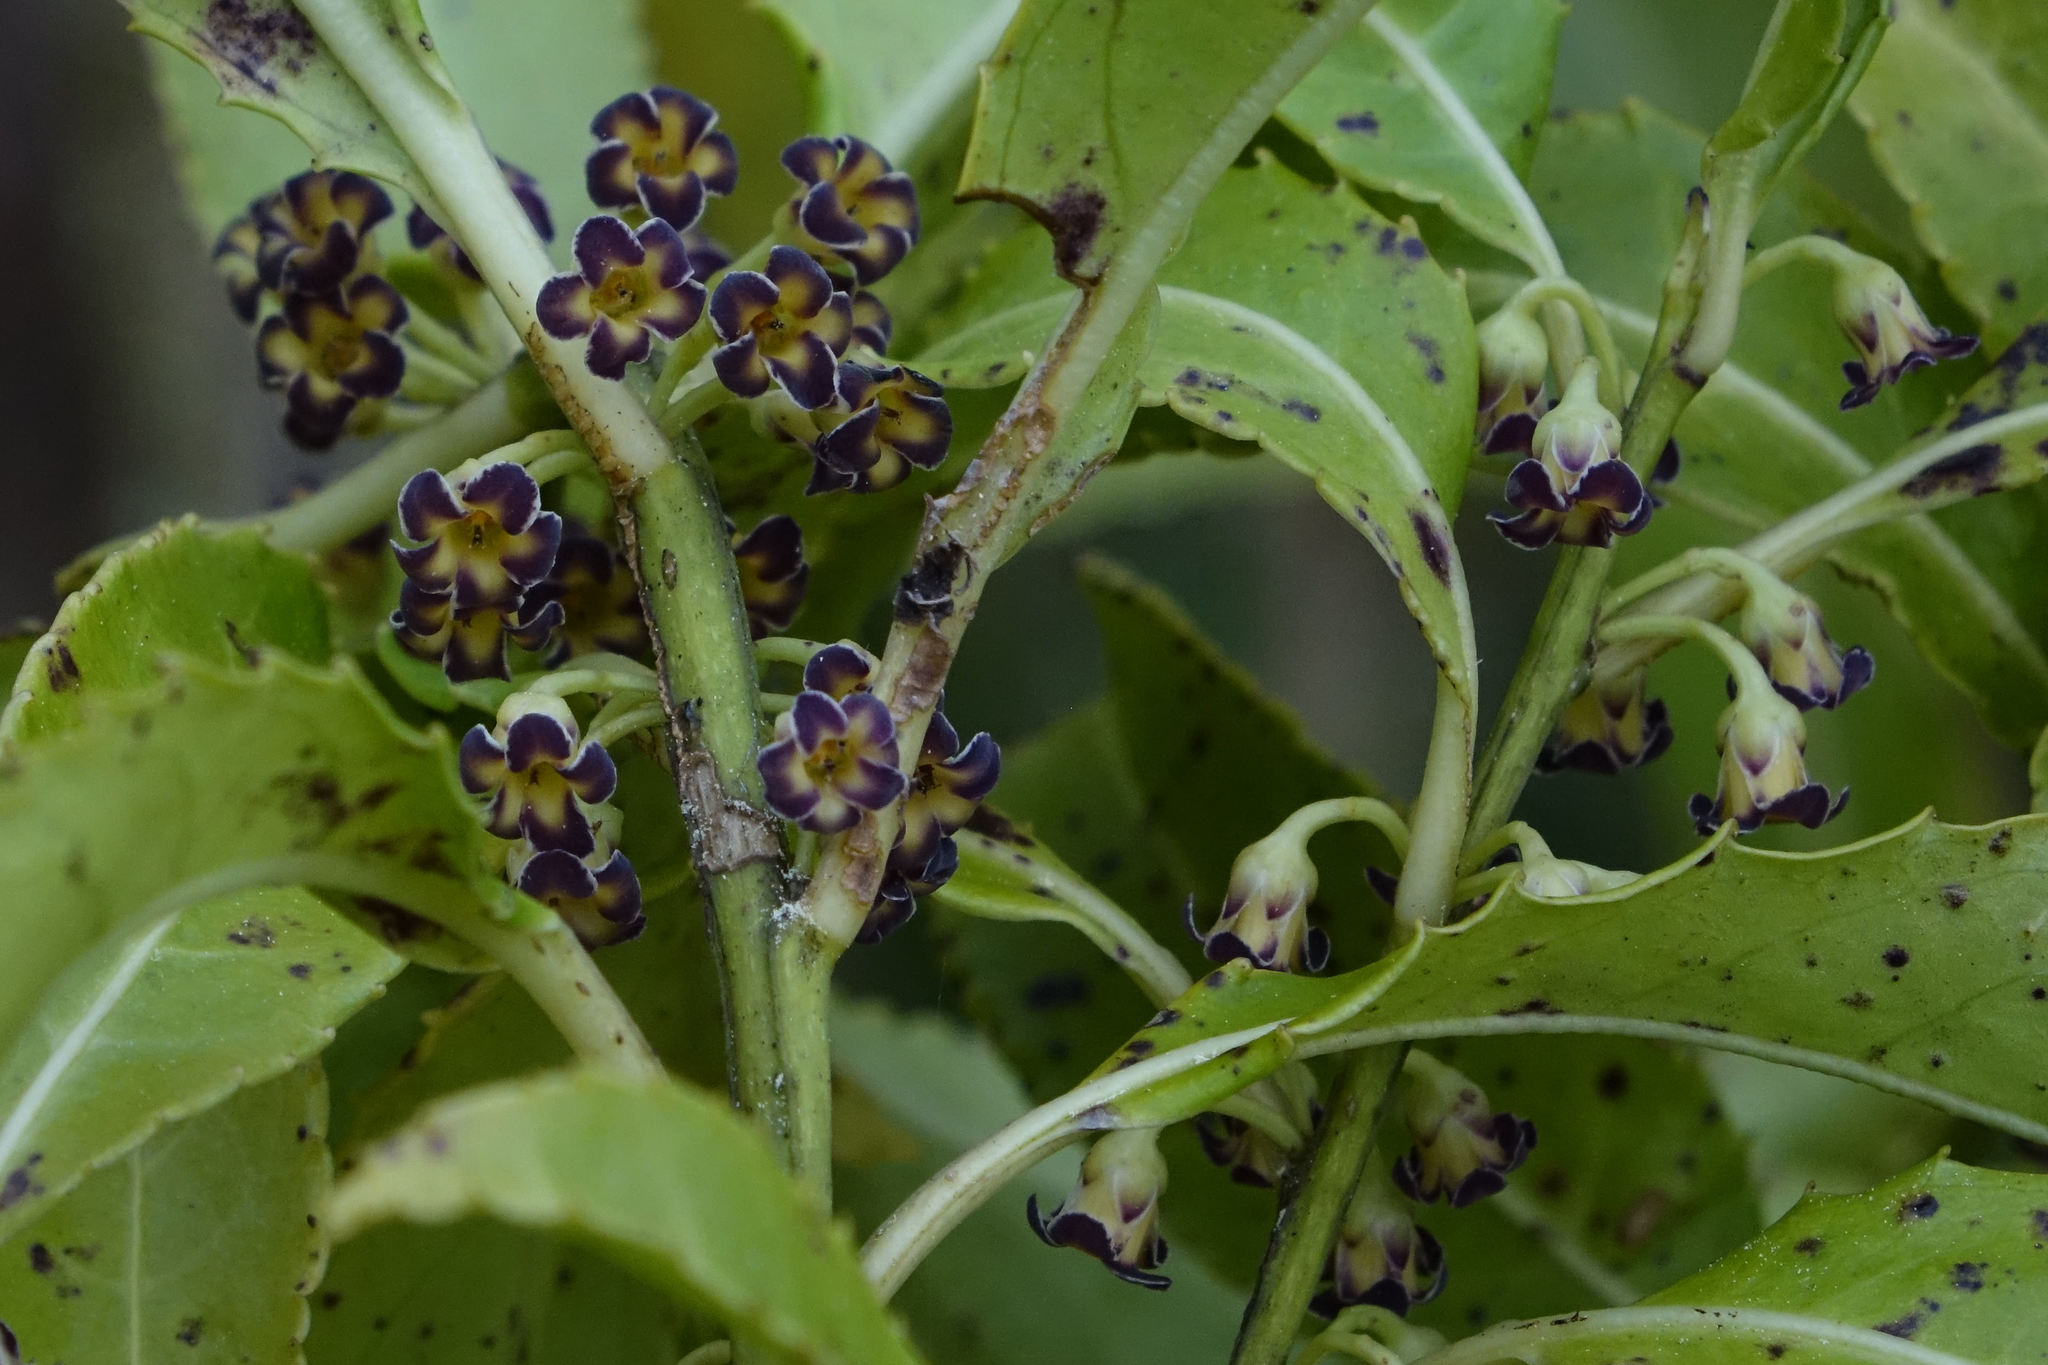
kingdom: Plantae
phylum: Tracheophyta
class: Magnoliopsida
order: Malpighiales
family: Violaceae
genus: Melicytus
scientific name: Melicytus lanceolatus
